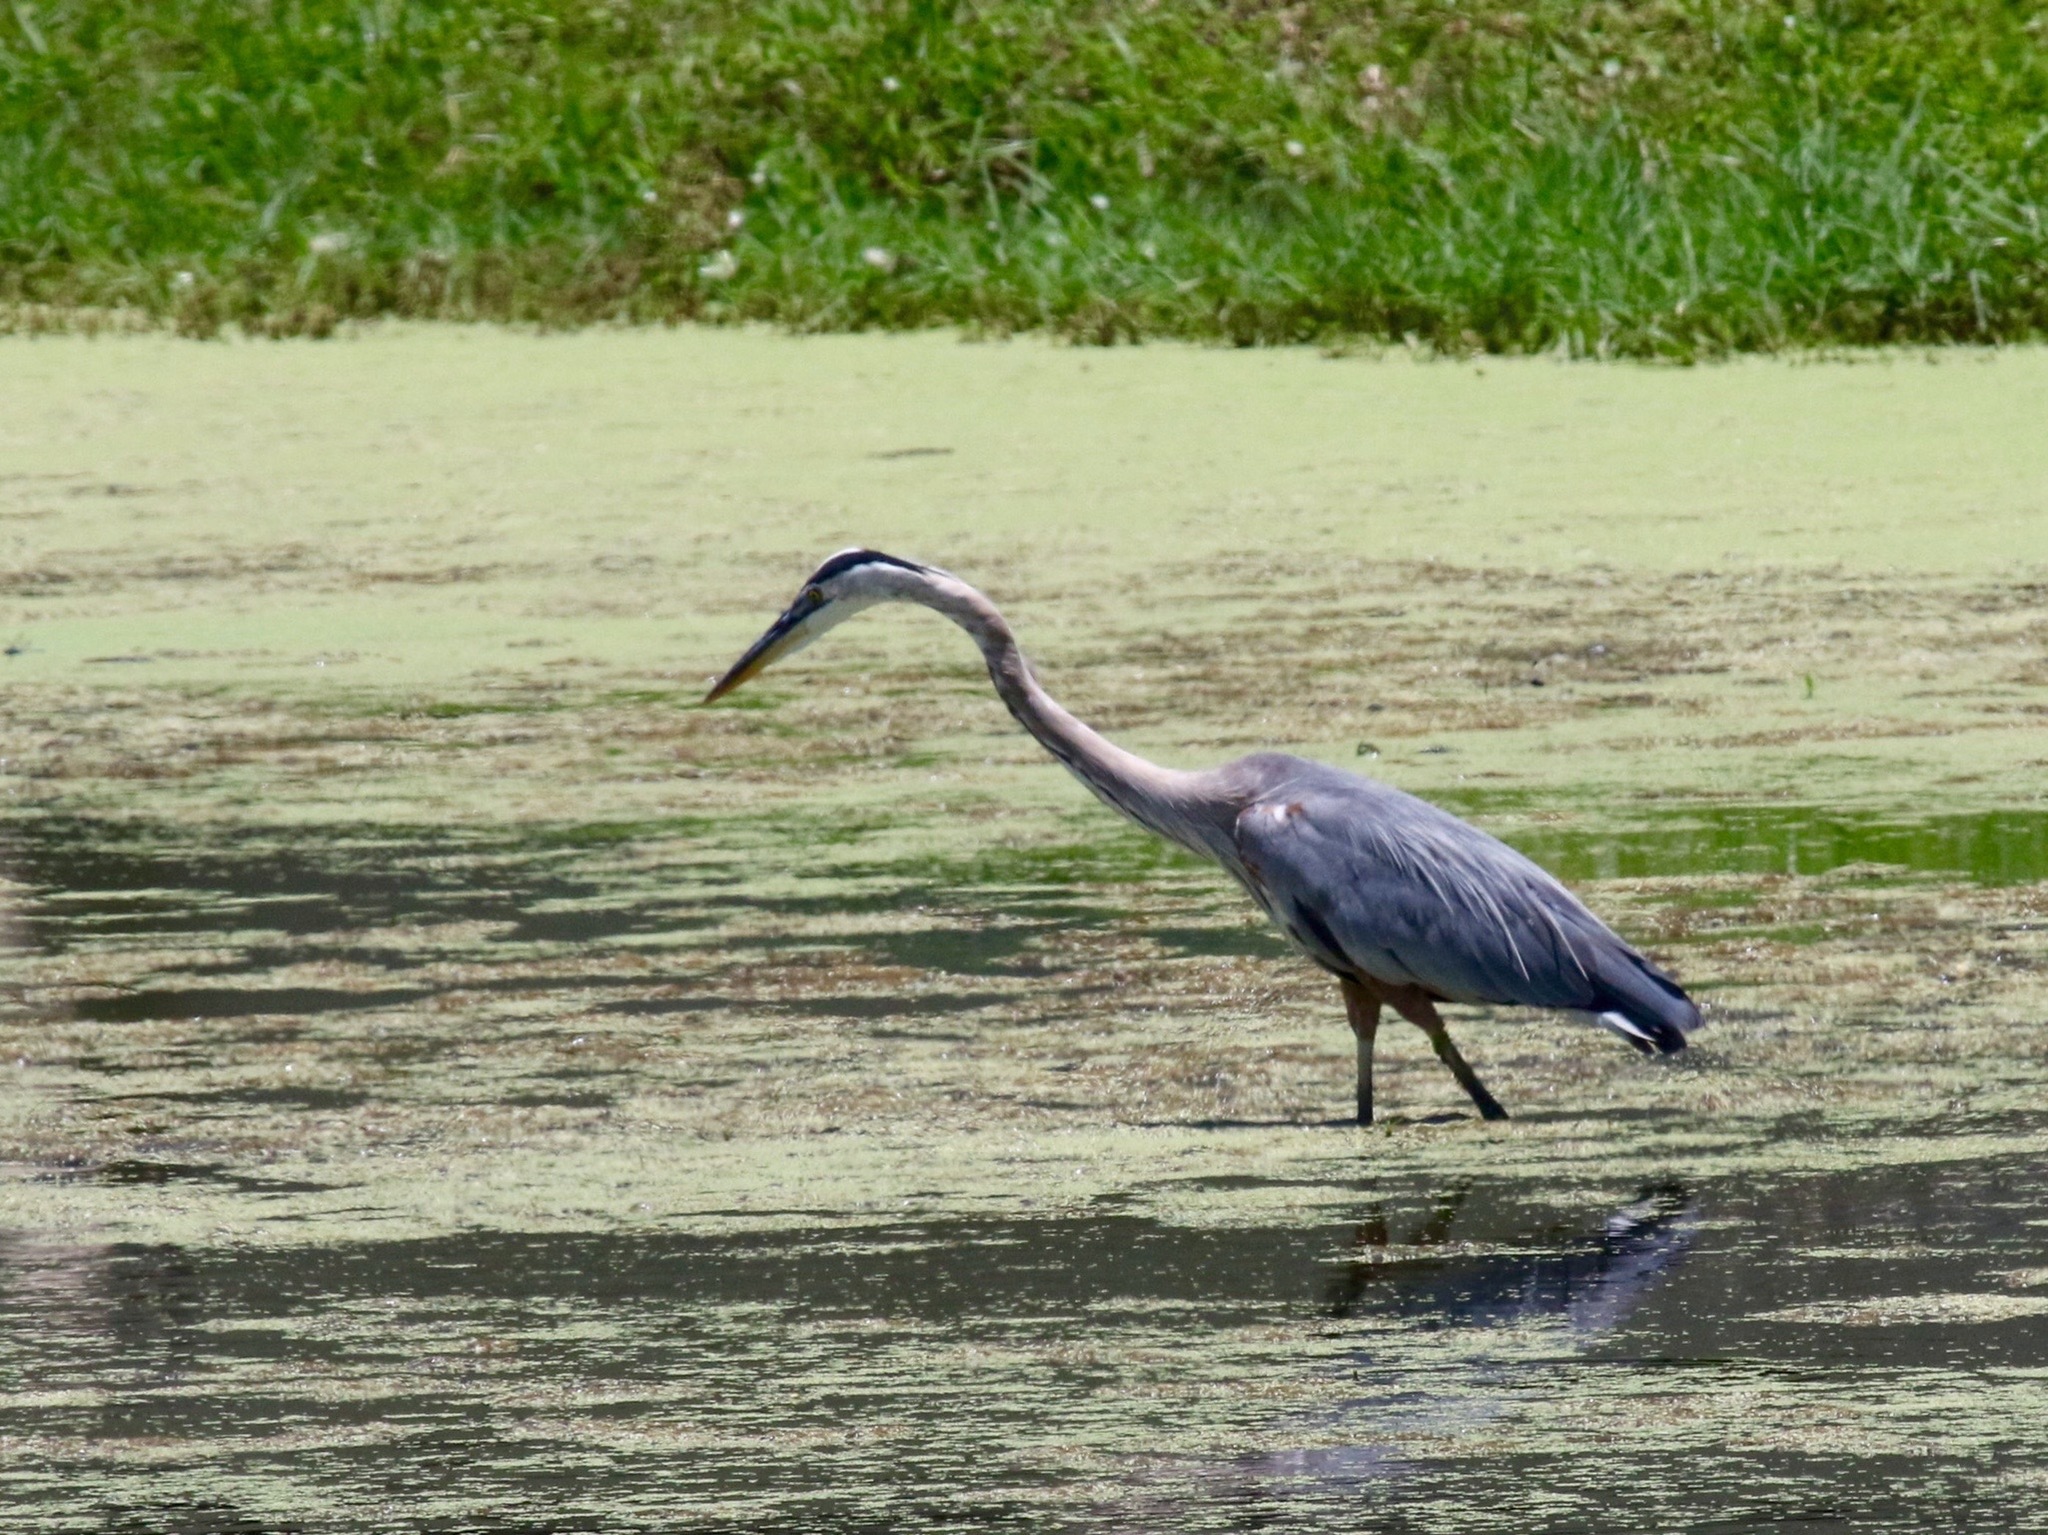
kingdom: Animalia
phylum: Chordata
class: Aves
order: Pelecaniformes
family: Ardeidae
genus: Ardea
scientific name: Ardea herodias
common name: Great blue heron
